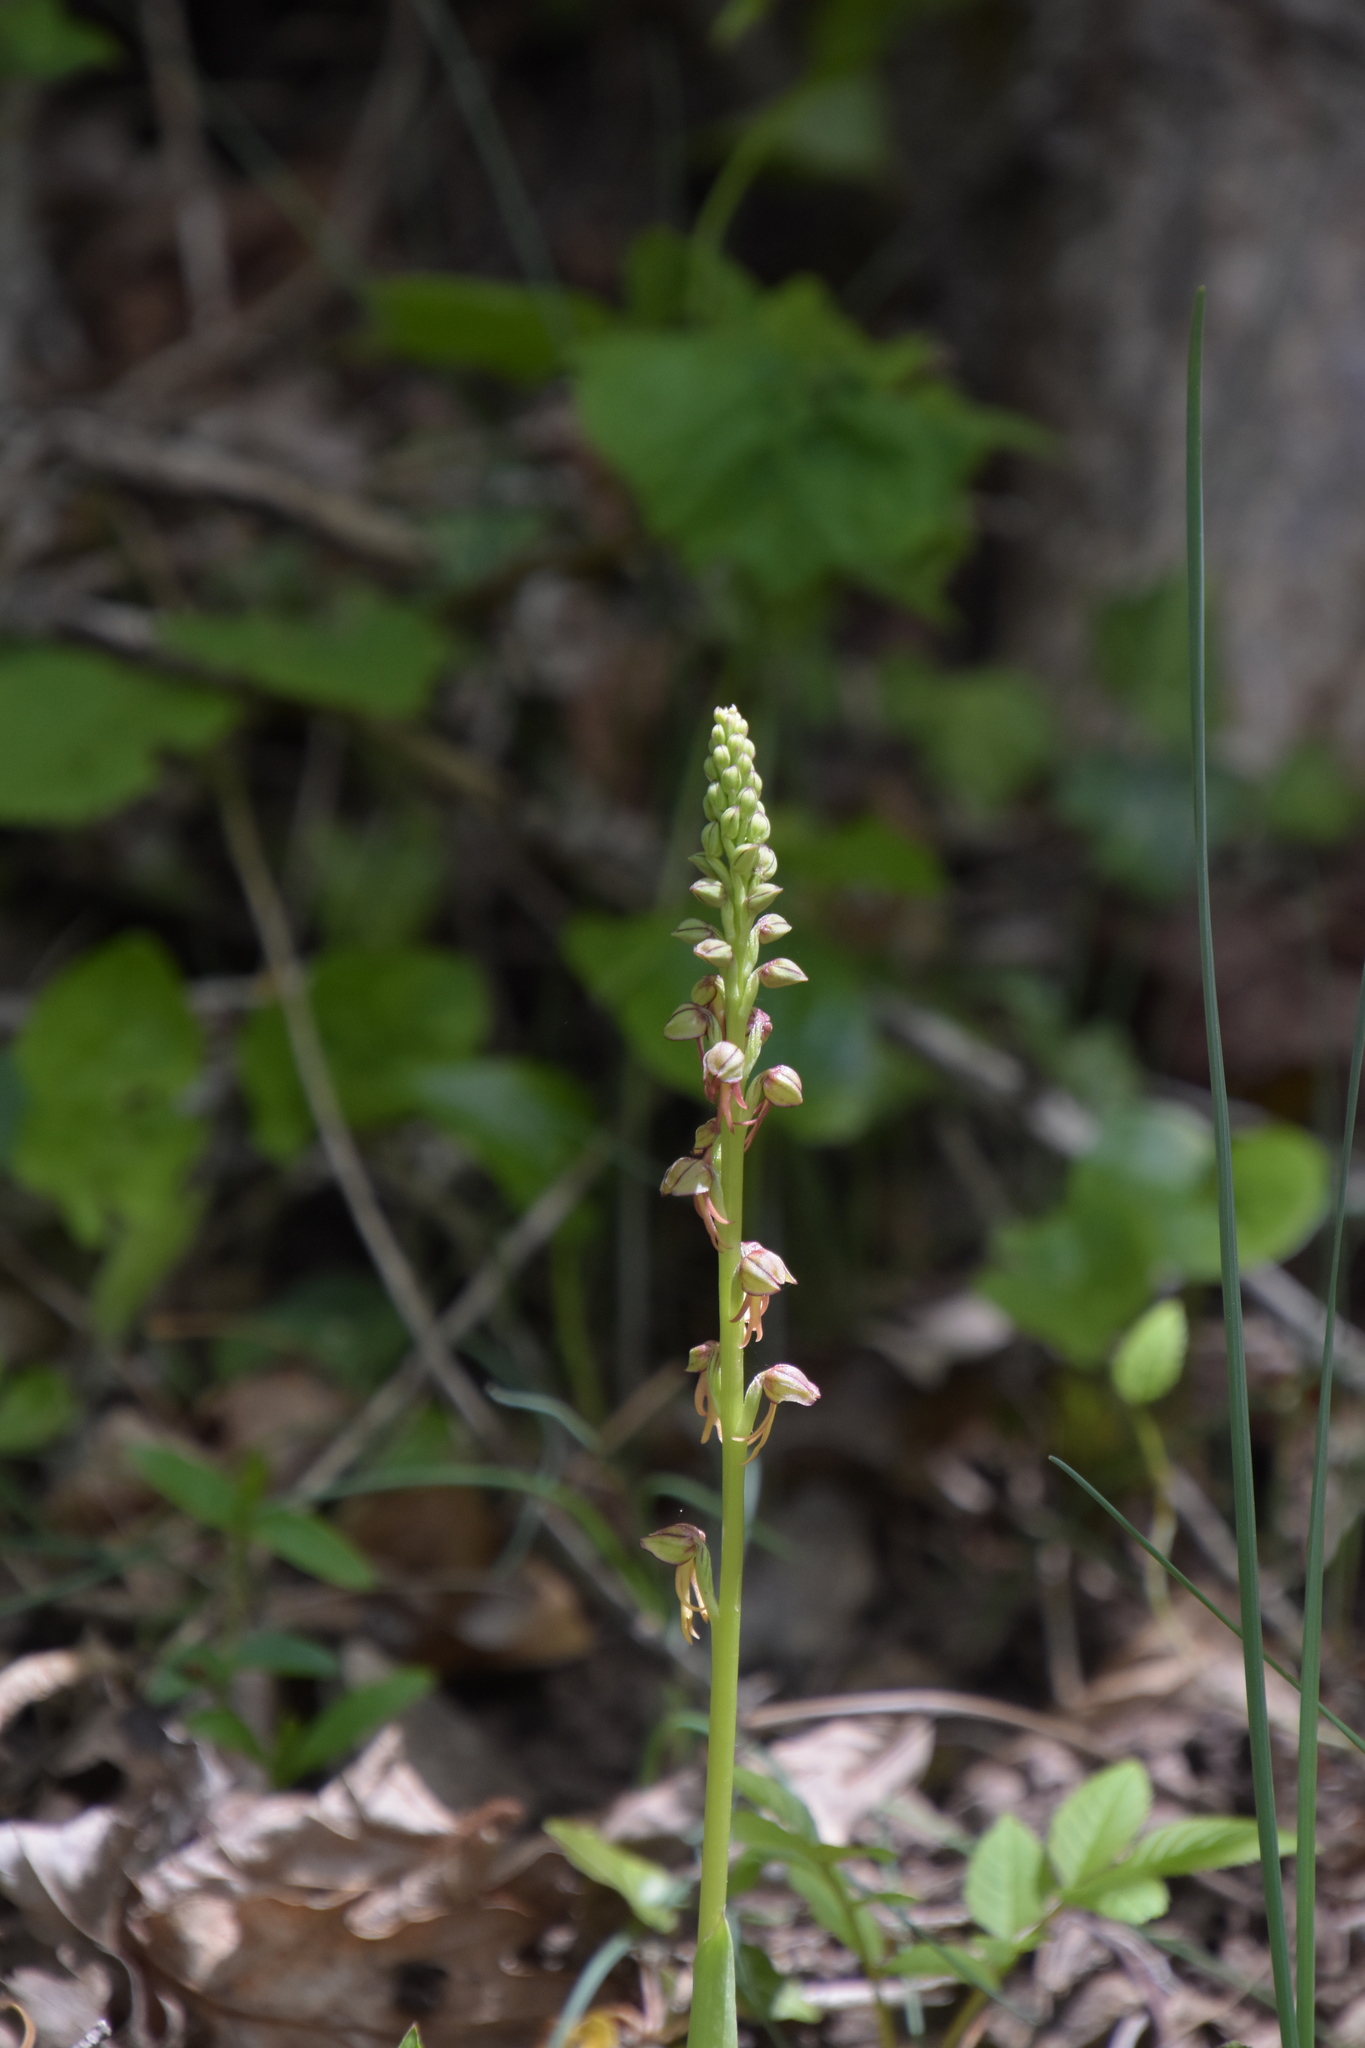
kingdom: Plantae
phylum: Tracheophyta
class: Liliopsida
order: Asparagales
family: Orchidaceae
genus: Orchis
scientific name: Orchis anthropophora
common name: Man orchid
